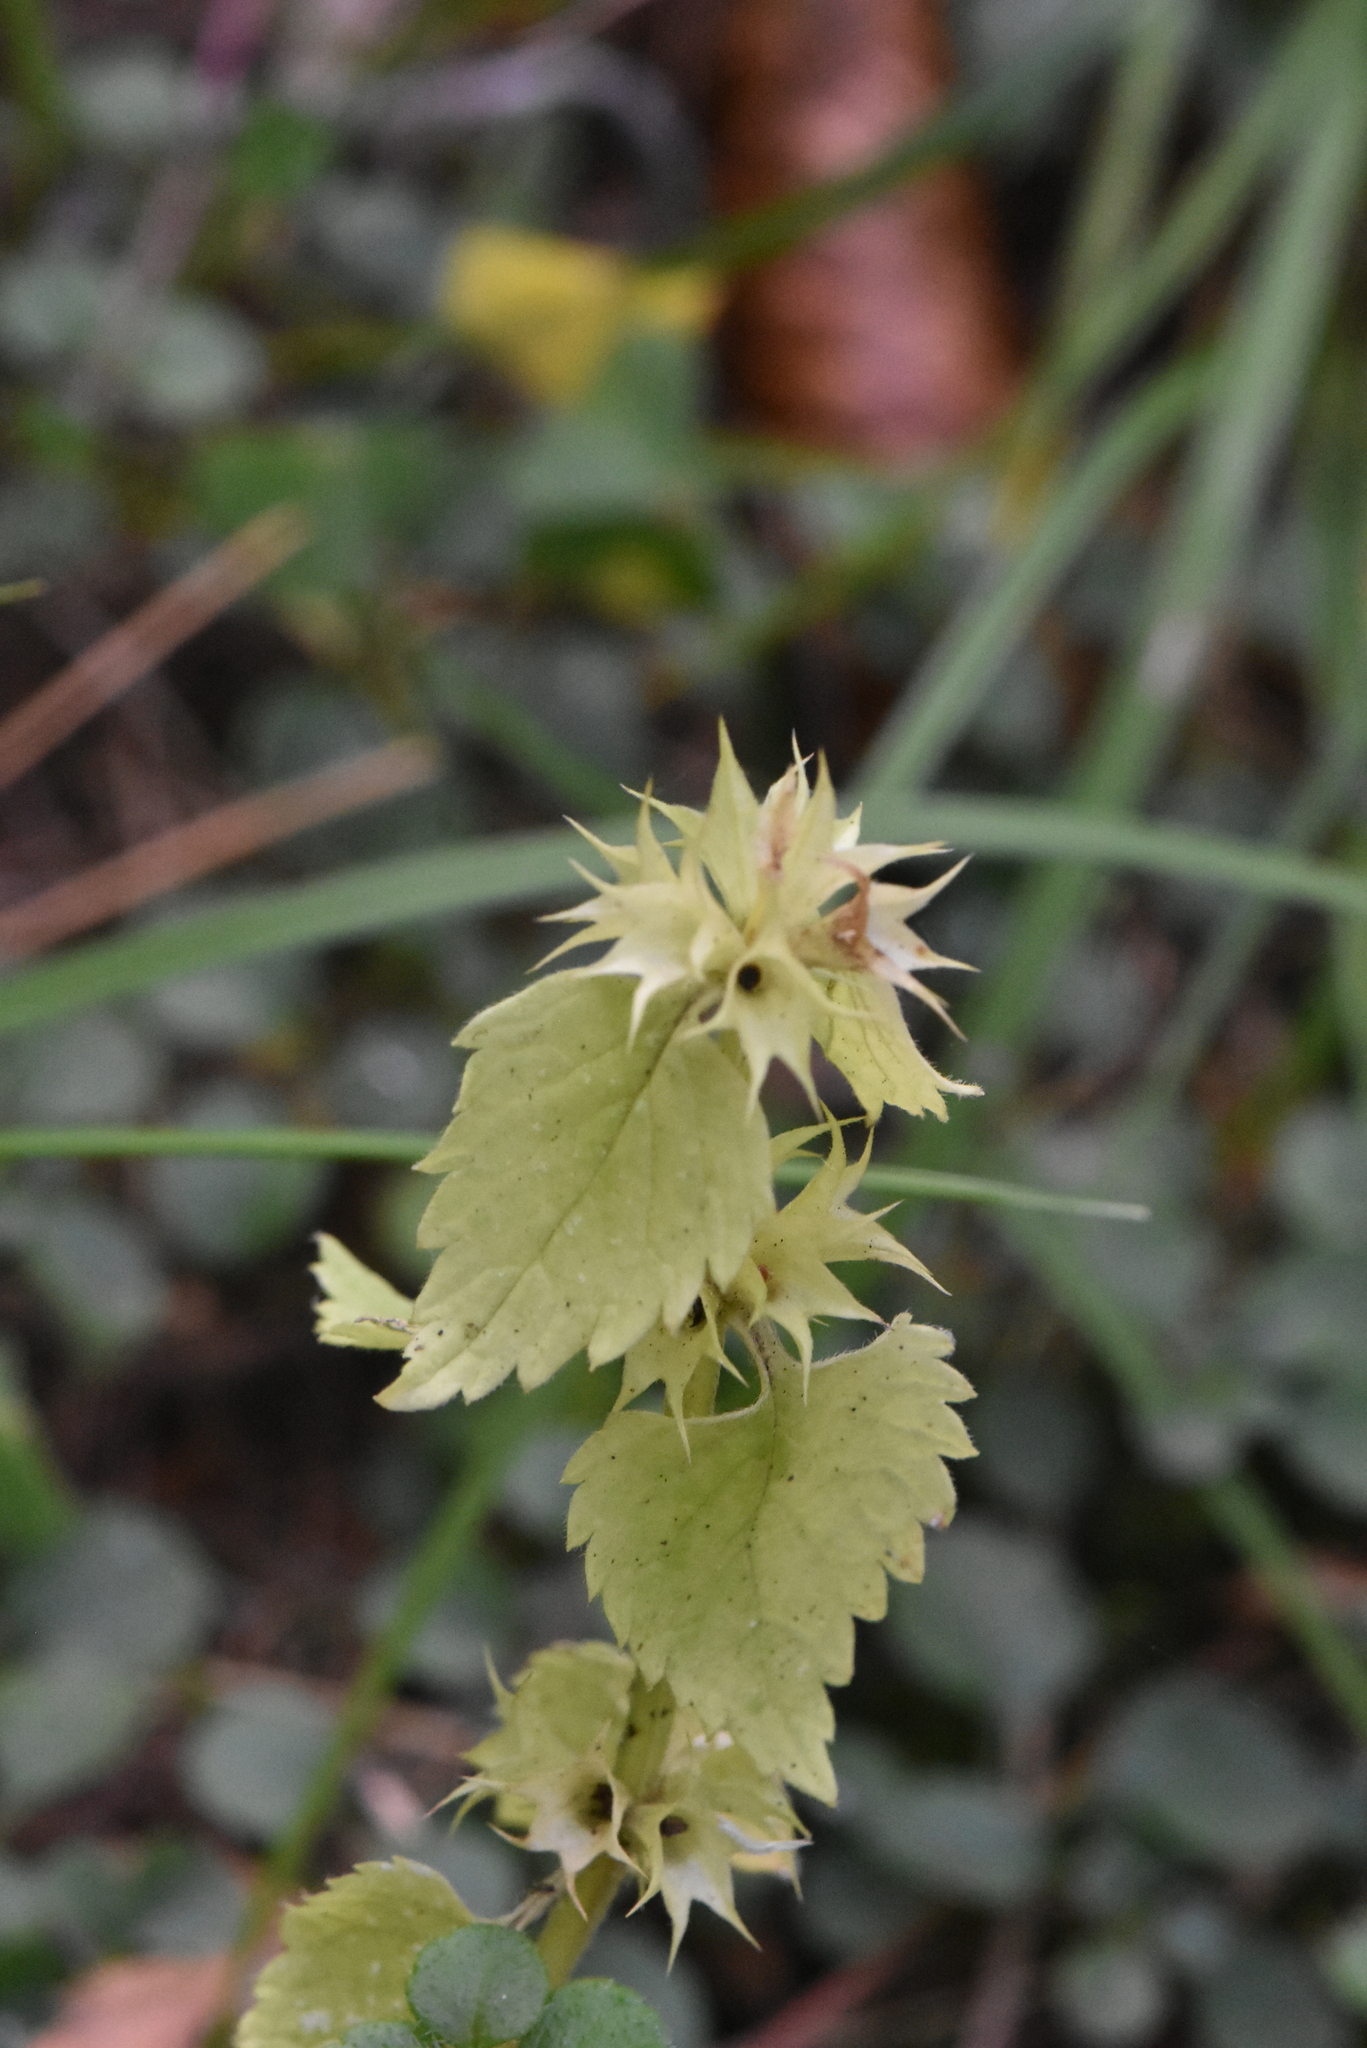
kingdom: Plantae
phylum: Tracheophyta
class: Magnoliopsida
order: Lamiales
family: Lamiaceae
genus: Lamium
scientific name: Lamium album
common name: White dead-nettle
